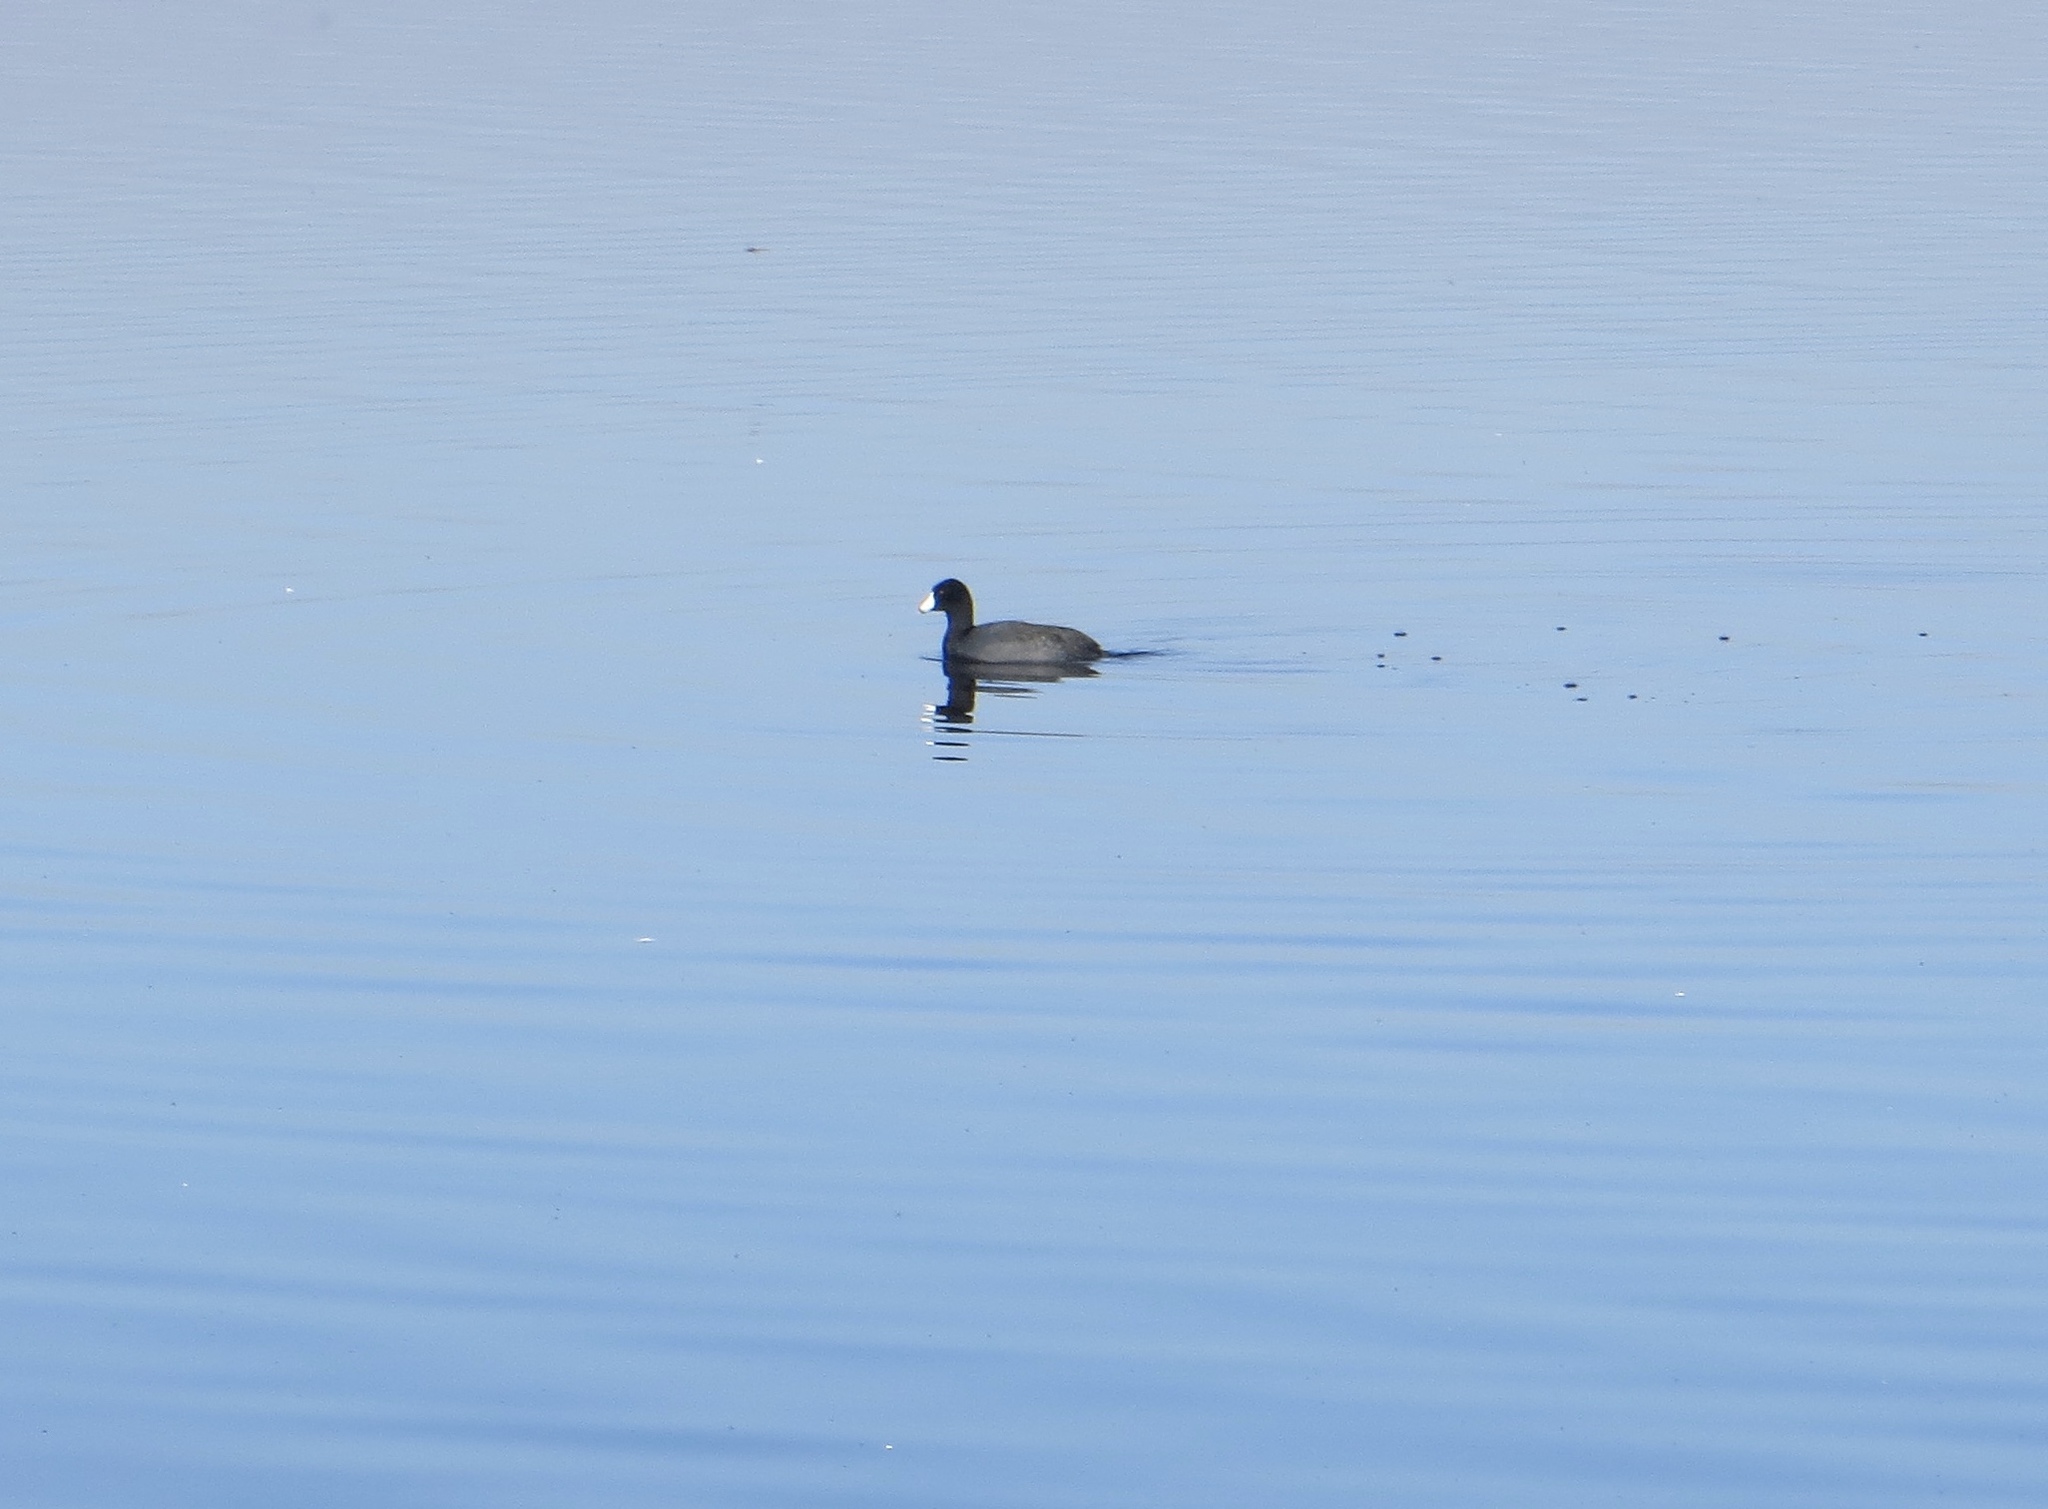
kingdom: Animalia
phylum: Chordata
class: Aves
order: Gruiformes
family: Rallidae
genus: Fulica
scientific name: Fulica americana
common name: American coot
